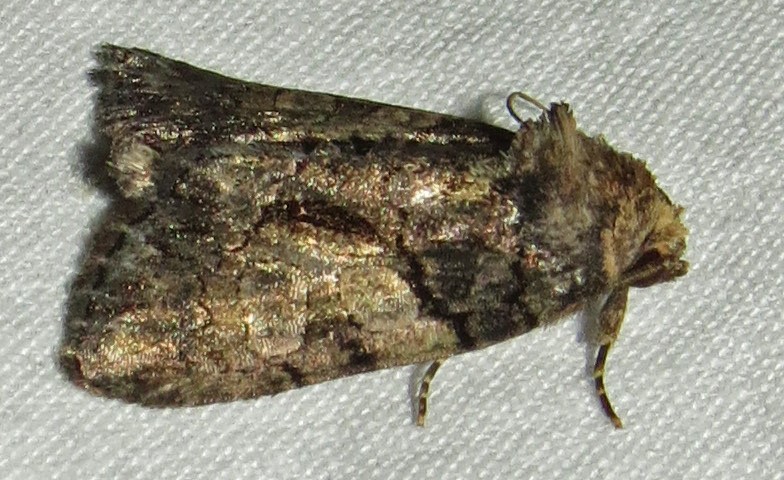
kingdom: Animalia
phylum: Arthropoda
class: Insecta
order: Lepidoptera
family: Noctuidae
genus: Chytonix
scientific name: Chytonix palliatricula
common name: Cloaked marvel
